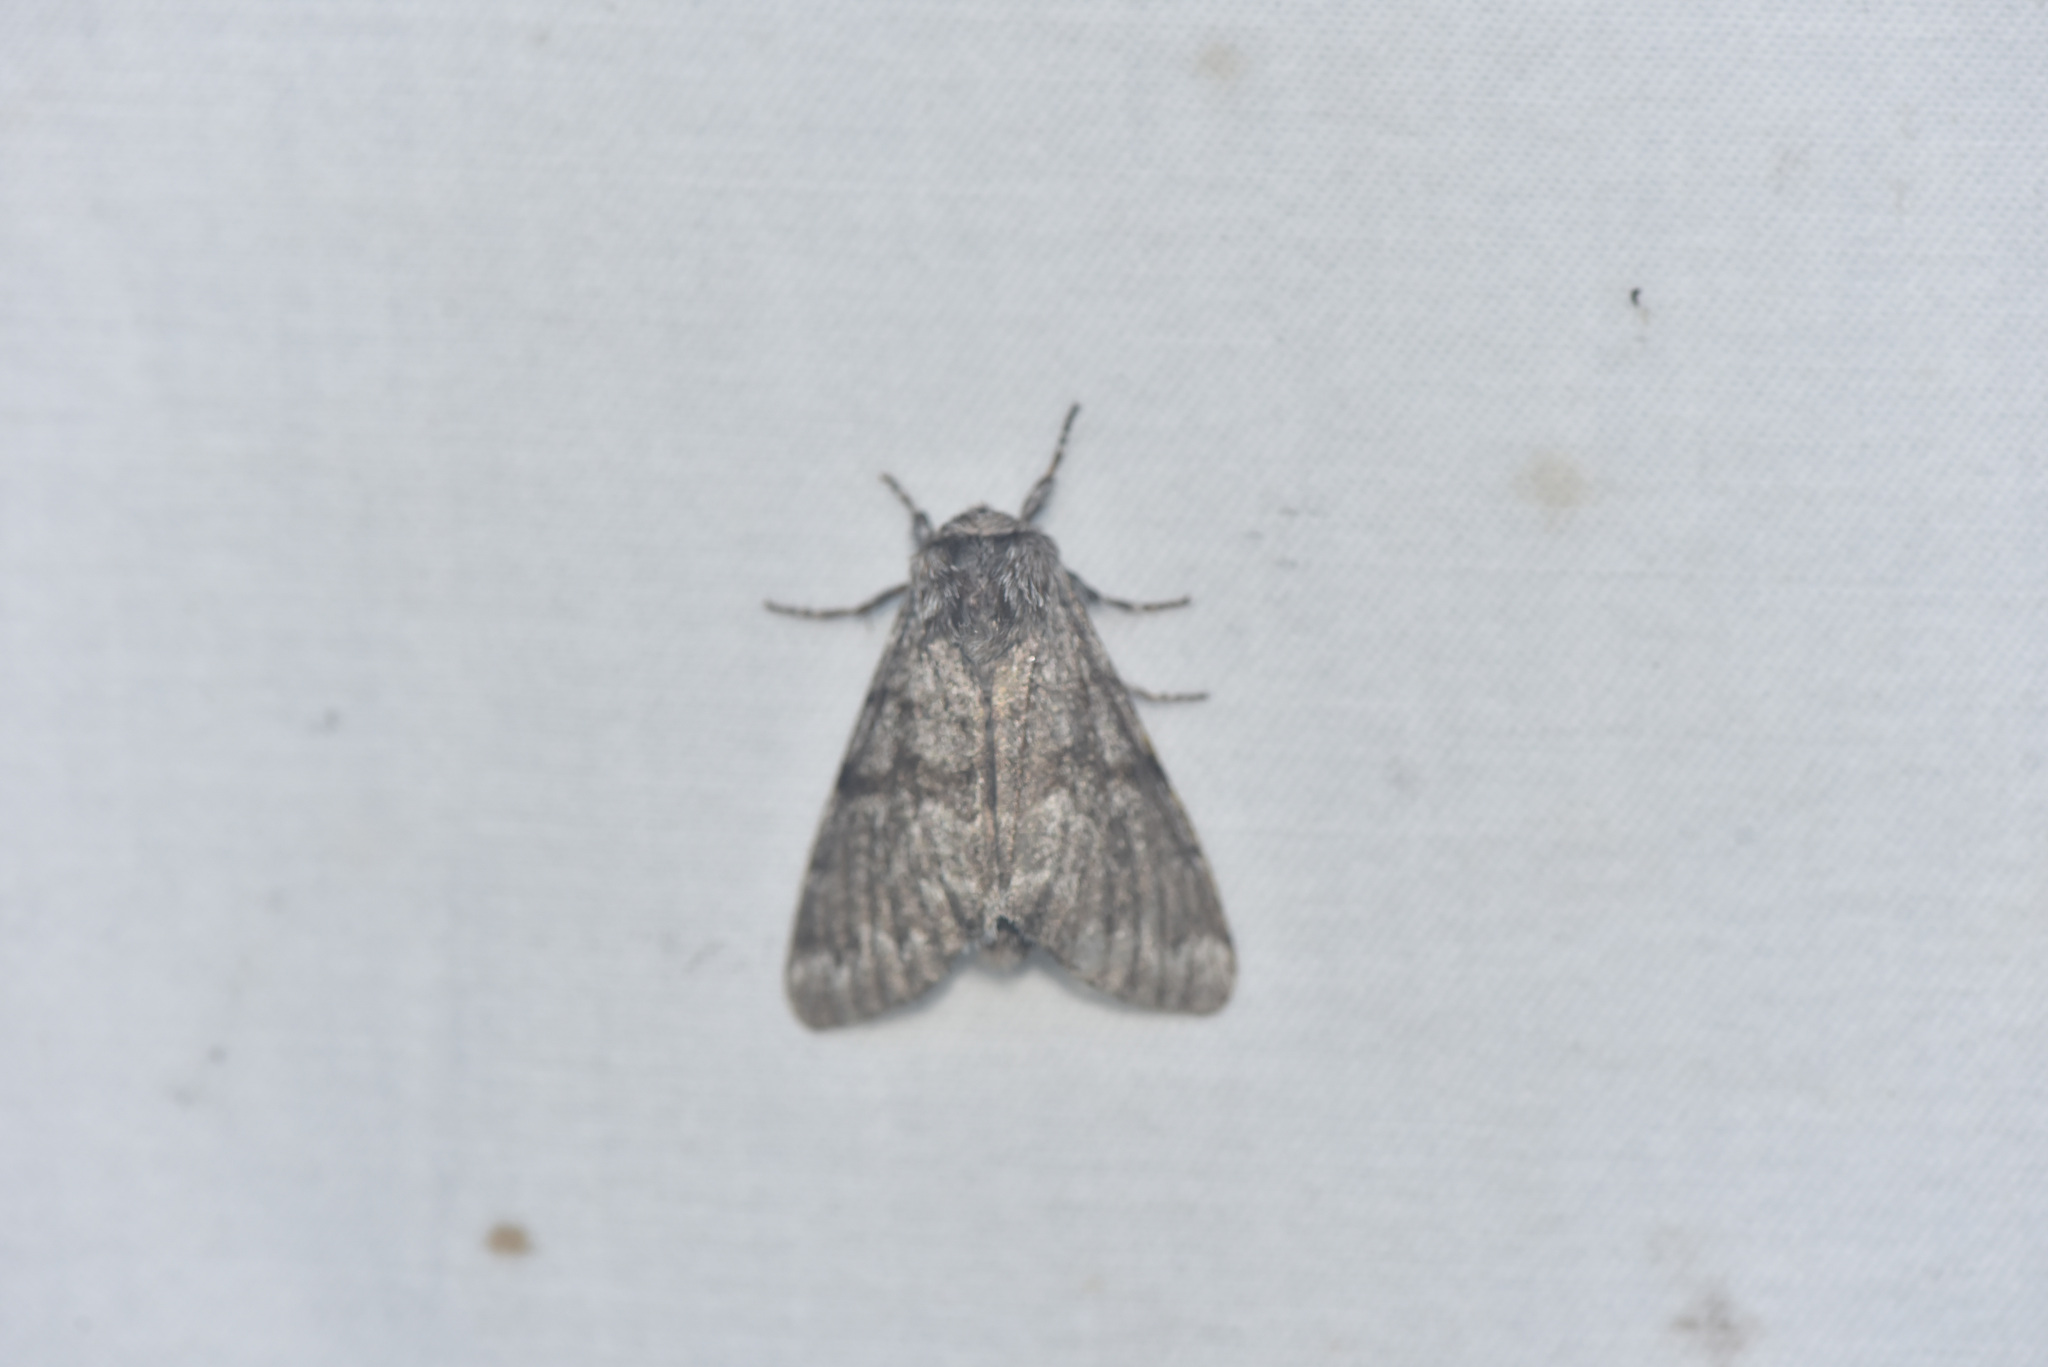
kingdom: Animalia
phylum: Arthropoda
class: Insecta
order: Lepidoptera
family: Noctuidae
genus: Panthea
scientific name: Panthea virginarius
